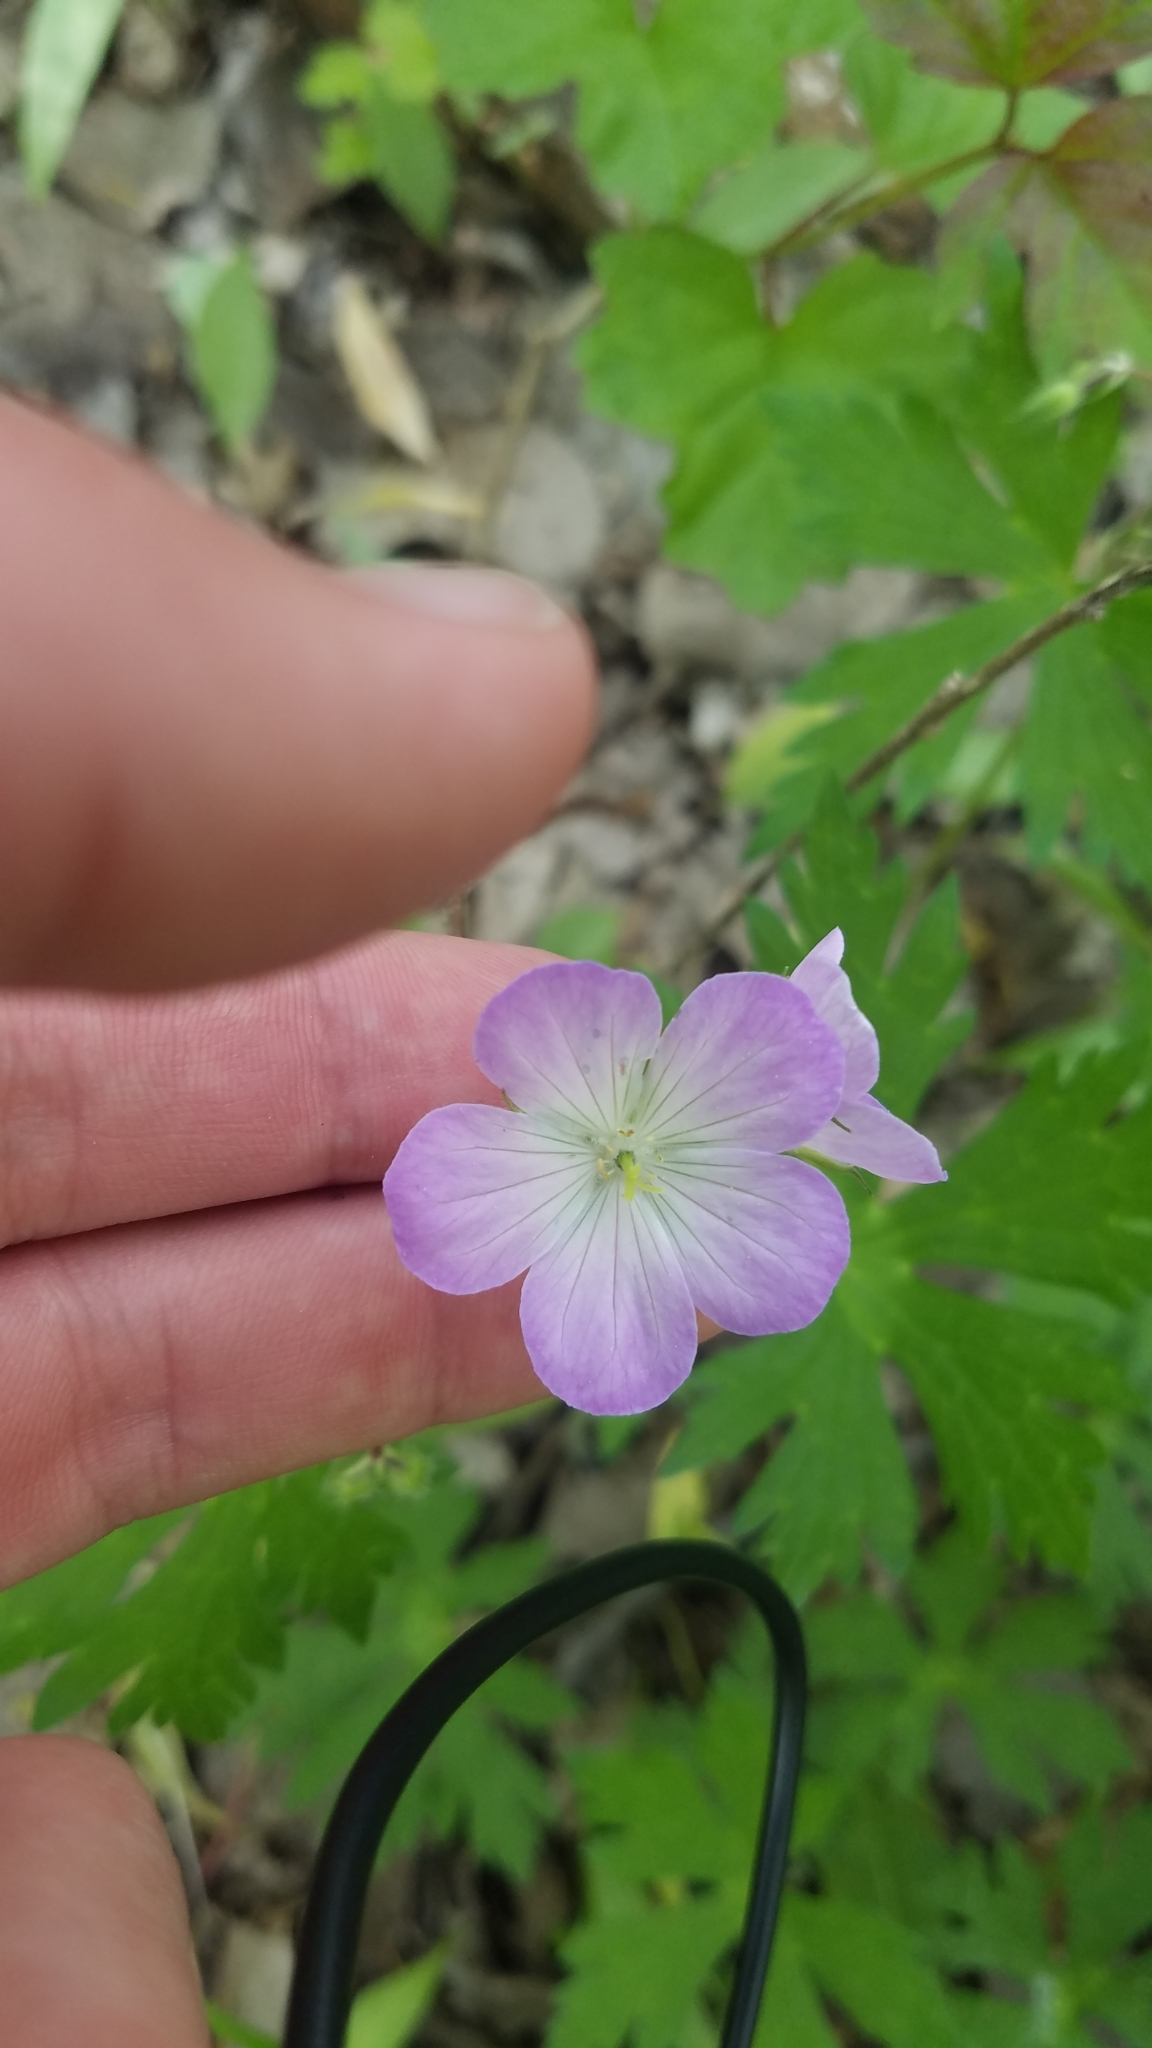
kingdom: Plantae
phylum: Tracheophyta
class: Magnoliopsida
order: Geraniales
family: Geraniaceae
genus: Geranium
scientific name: Geranium maculatum
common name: Spotted geranium
